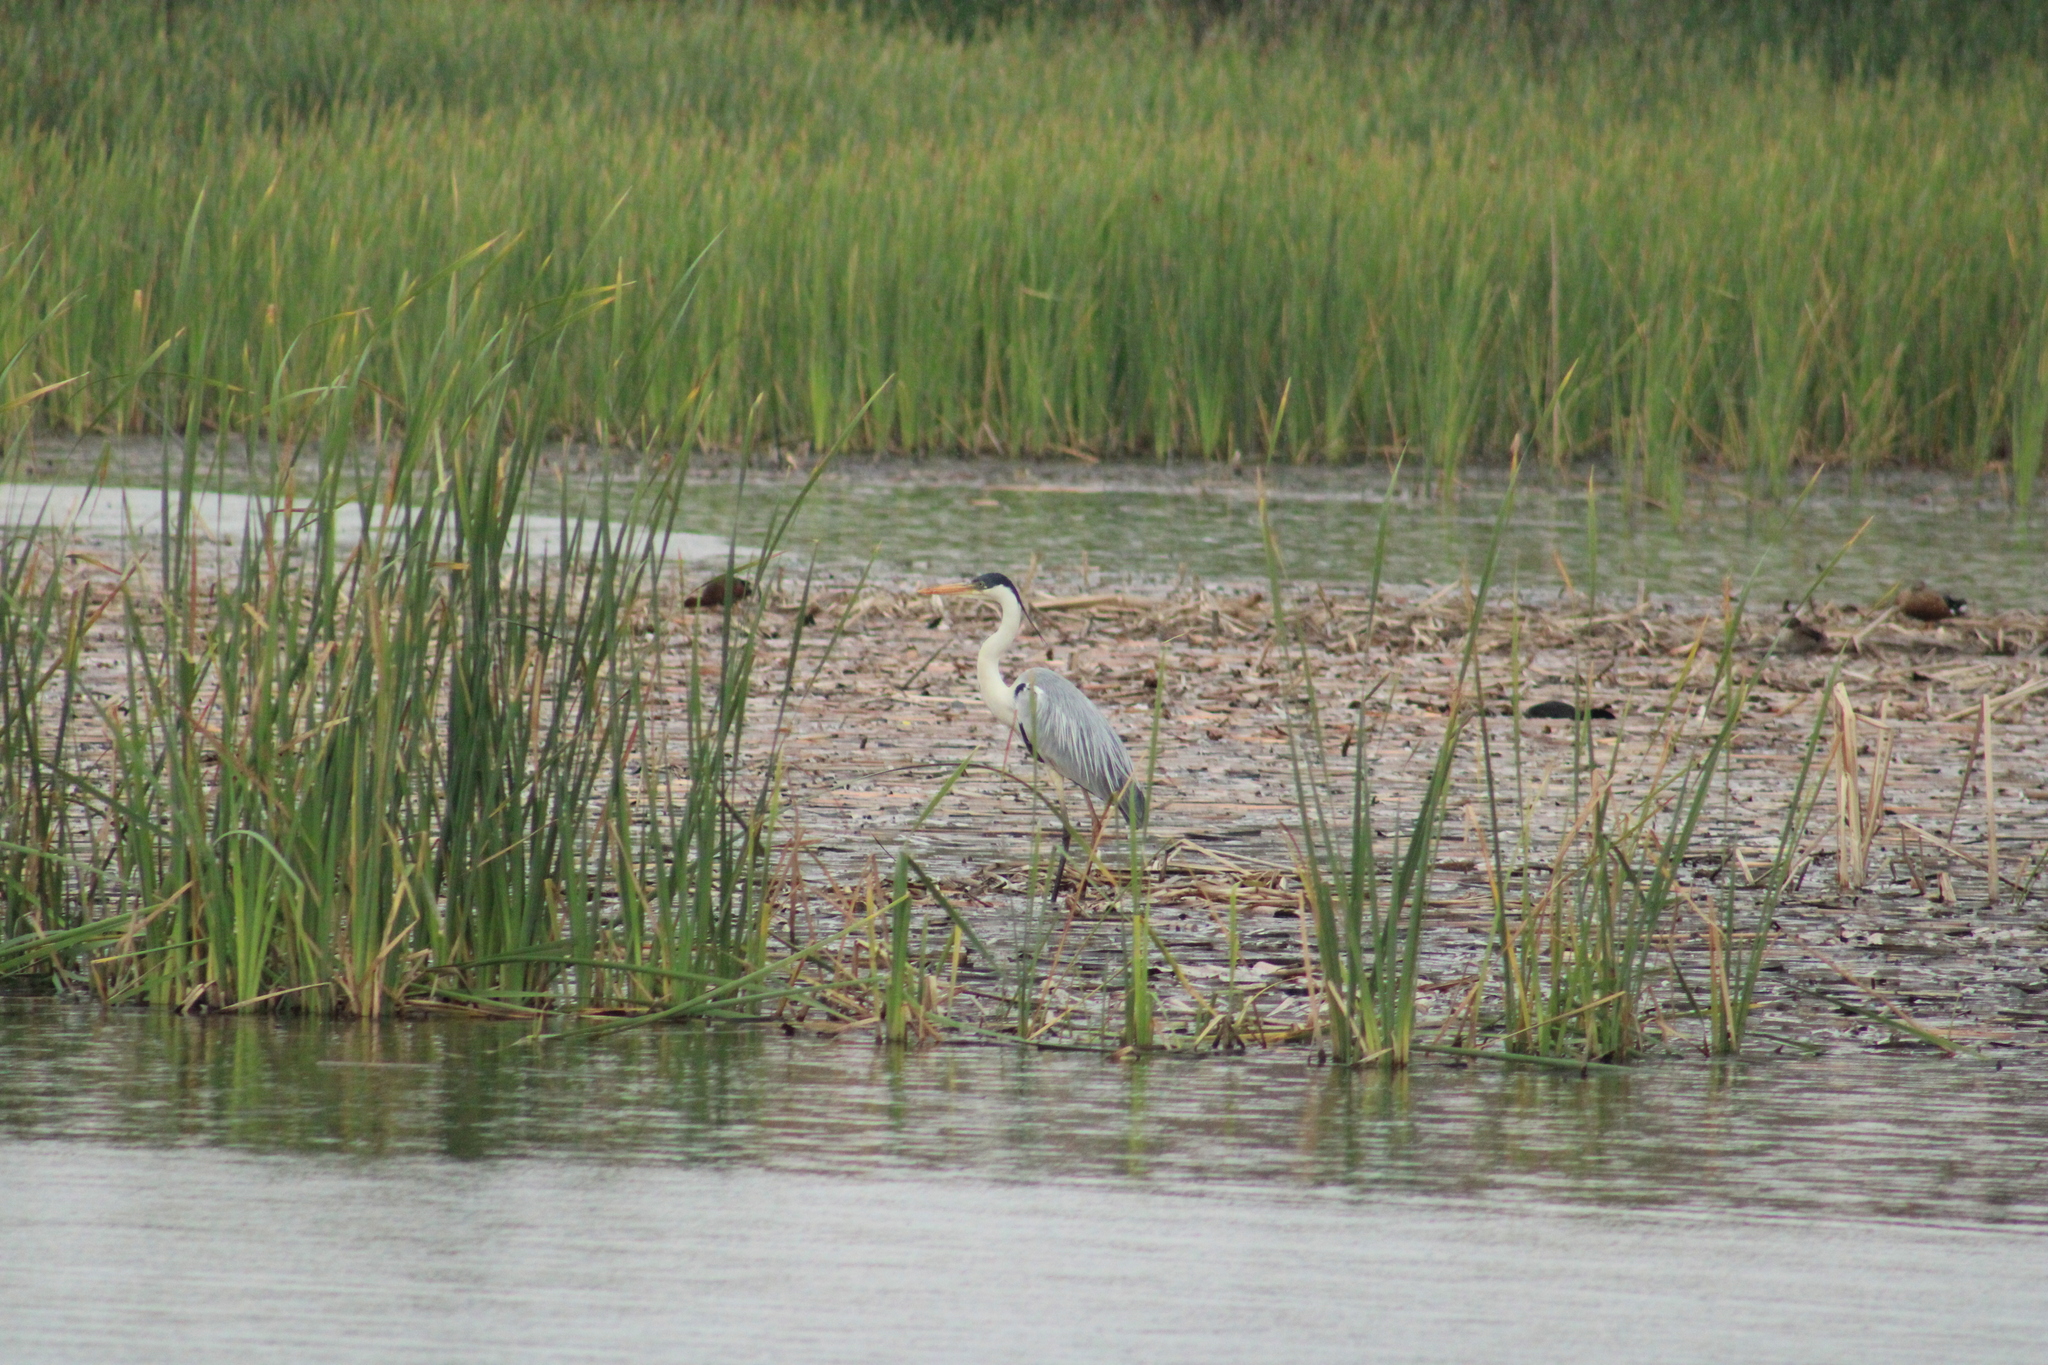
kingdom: Animalia
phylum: Chordata
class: Aves
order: Pelecaniformes
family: Ardeidae
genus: Ardea
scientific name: Ardea cocoi
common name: Cocoi heron
